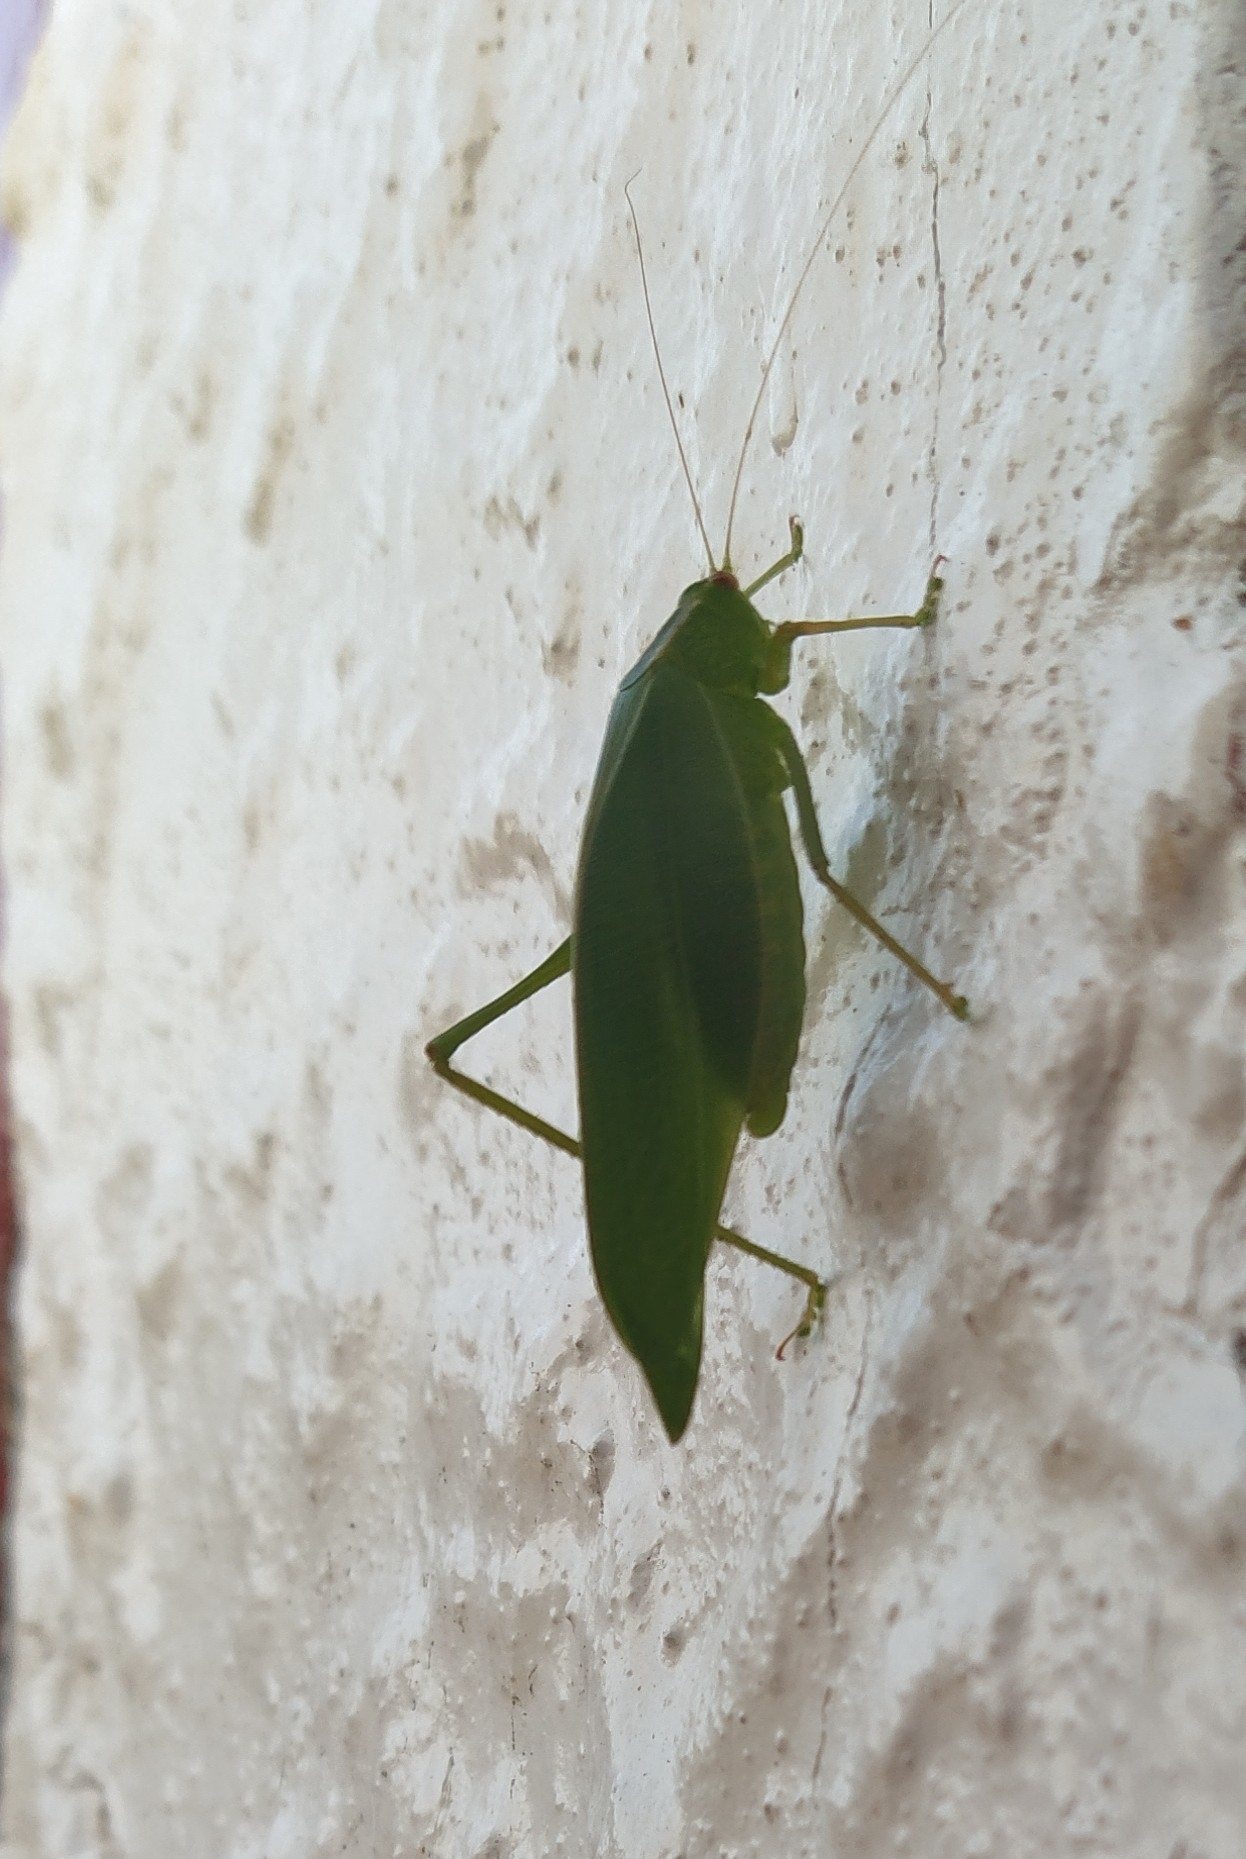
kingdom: Animalia
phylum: Arthropoda
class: Insecta
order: Orthoptera
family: Tettigoniidae
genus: Caedicia
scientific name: Caedicia simplex
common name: Common garden katydid
